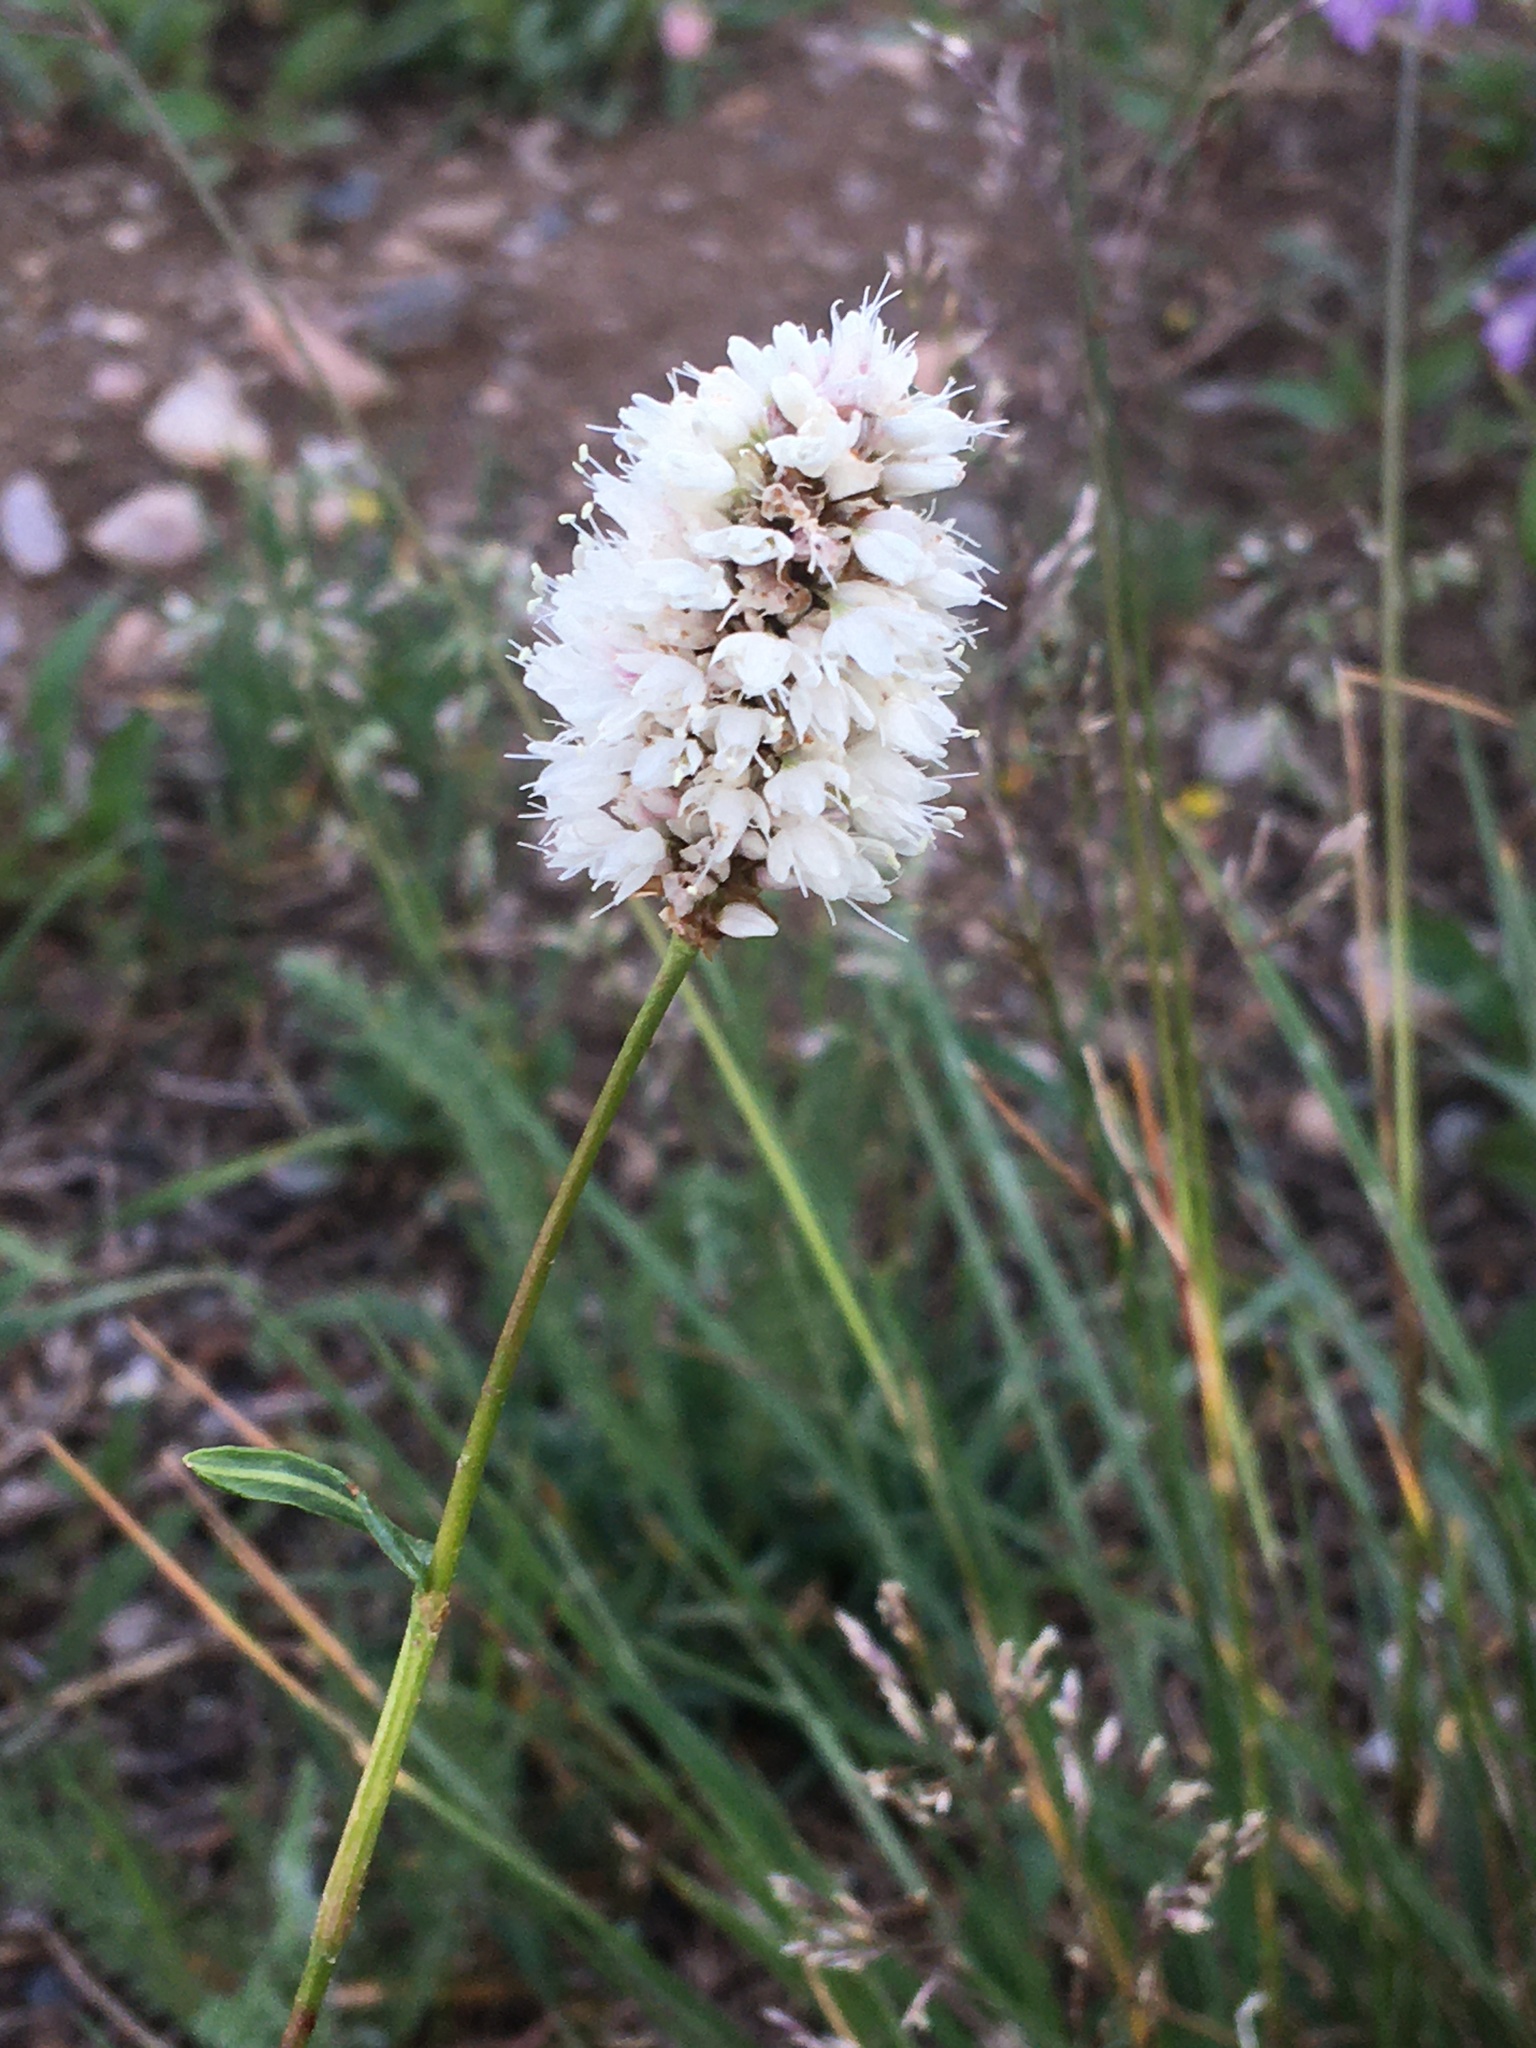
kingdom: Plantae
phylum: Tracheophyta
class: Magnoliopsida
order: Caryophyllales
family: Polygonaceae
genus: Bistorta
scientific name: Bistorta bistortoides
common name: American bistort
